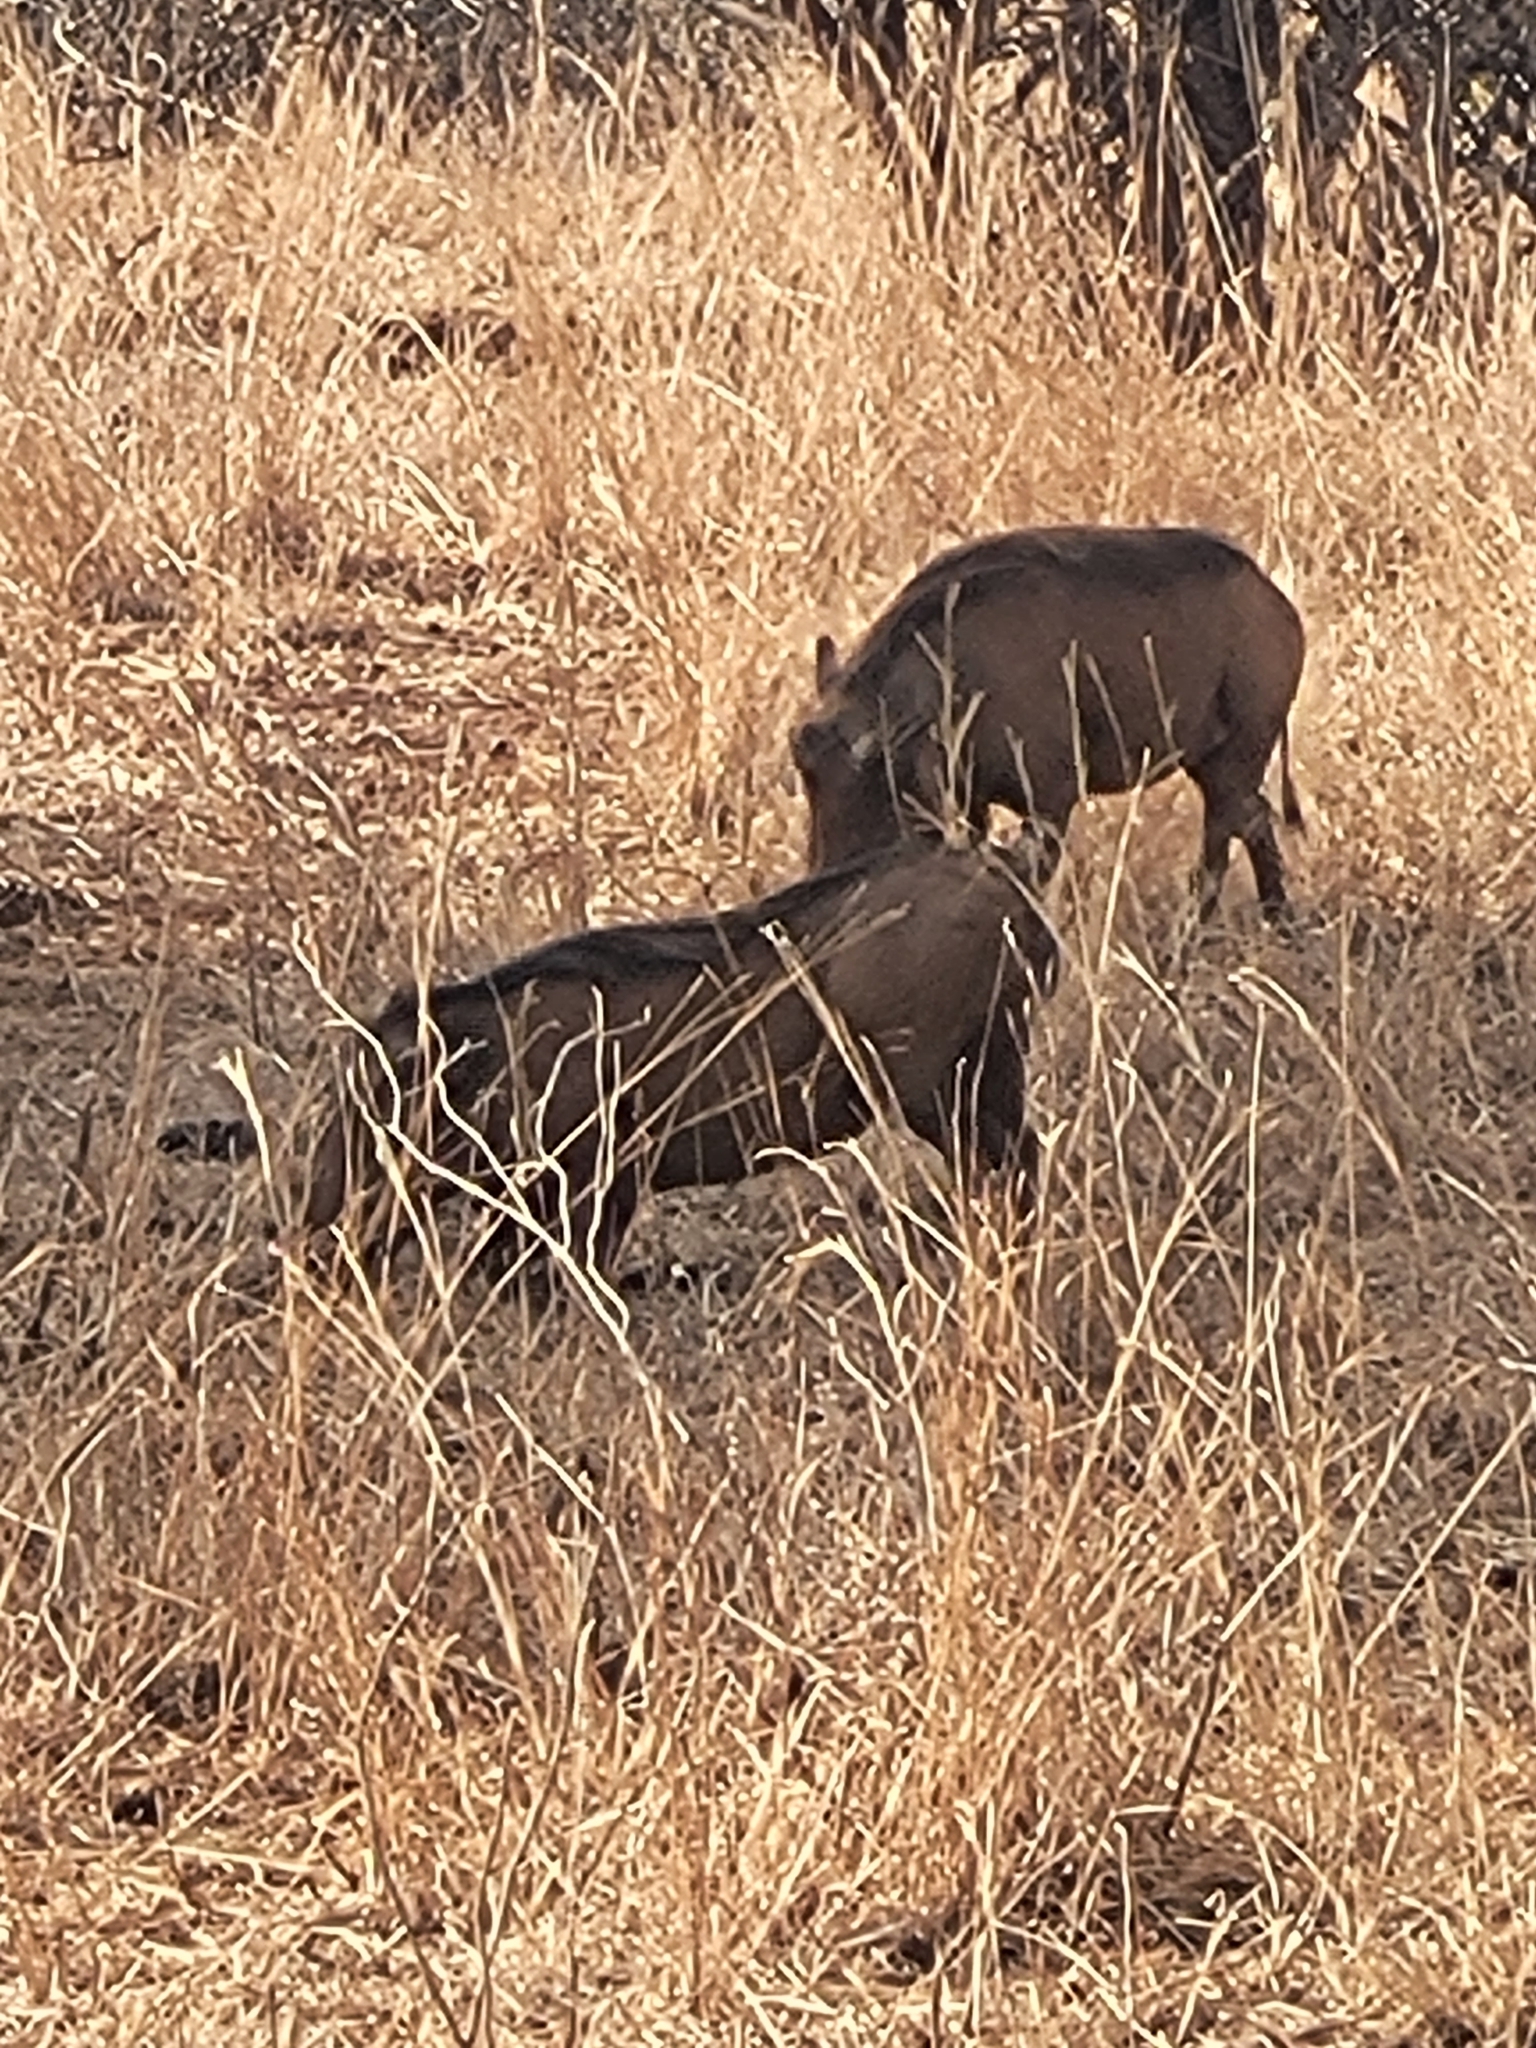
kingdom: Animalia
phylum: Chordata
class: Mammalia
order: Artiodactyla
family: Suidae
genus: Phacochoerus
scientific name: Phacochoerus africanus
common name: Common warthog
